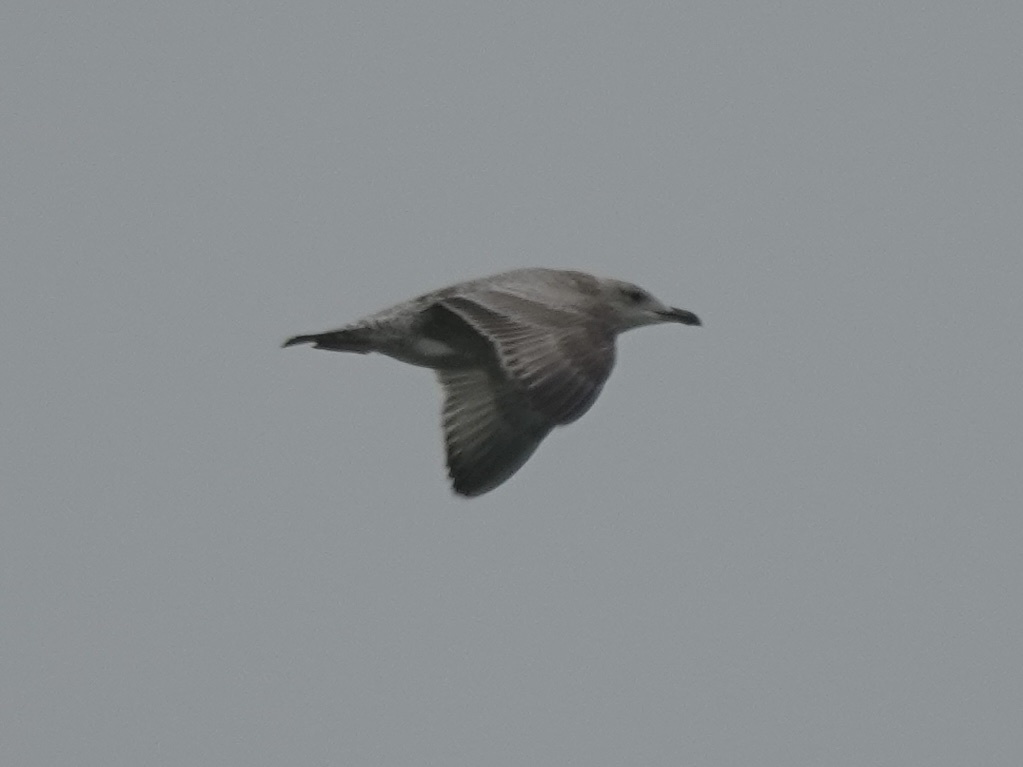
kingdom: Animalia
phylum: Chordata
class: Aves
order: Charadriiformes
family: Laridae
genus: Larus
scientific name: Larus argentatus
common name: Herring gull
